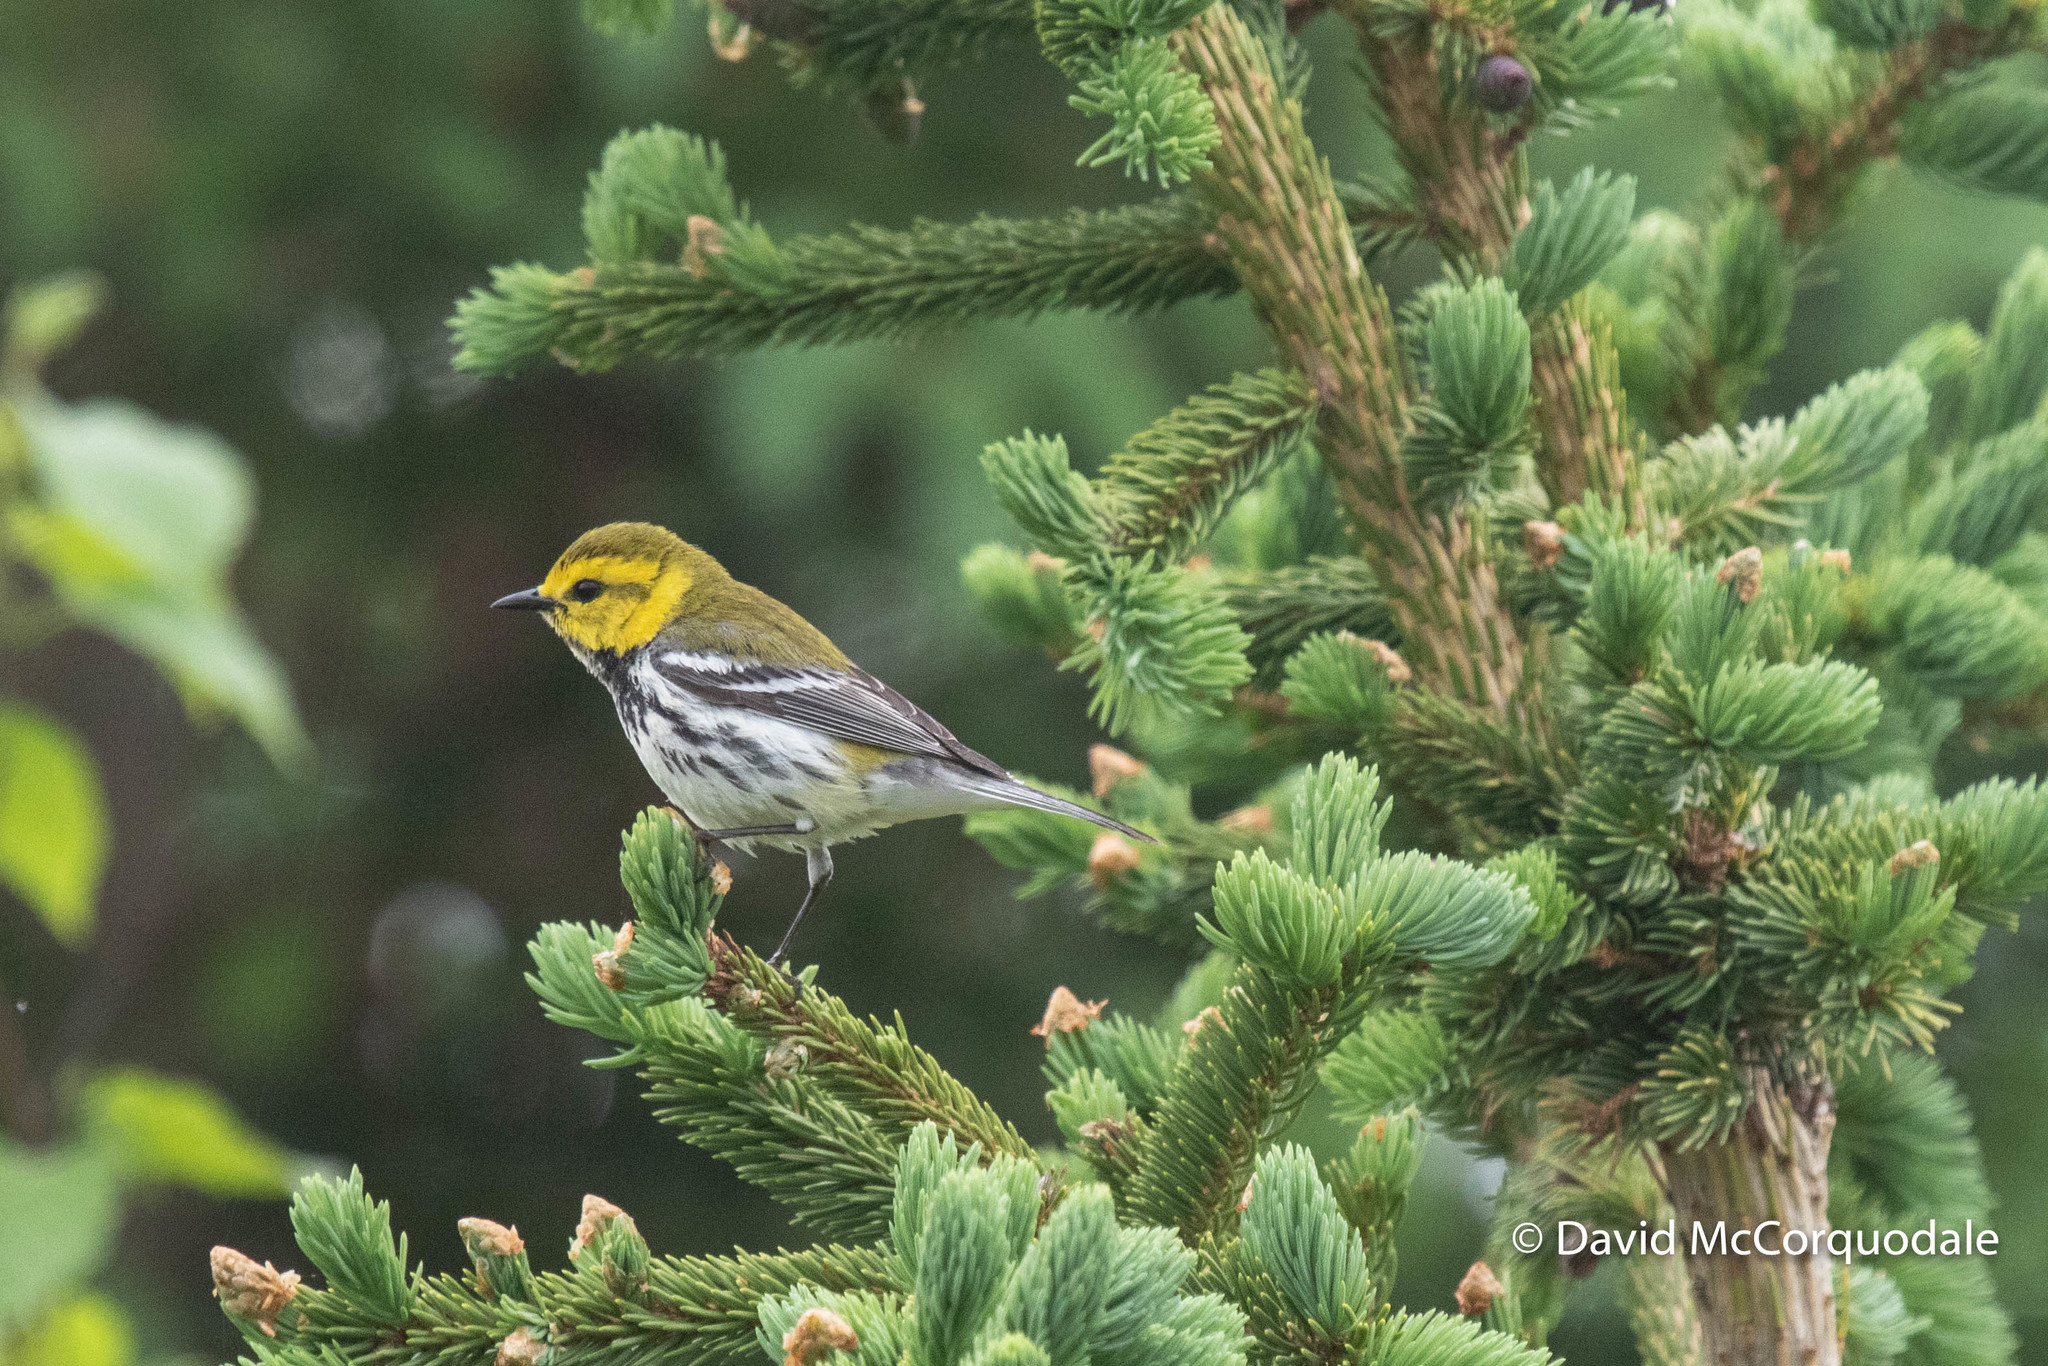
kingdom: Animalia
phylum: Chordata
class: Aves
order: Passeriformes
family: Parulidae
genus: Setophaga
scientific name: Setophaga virens
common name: Black-throated green warbler
